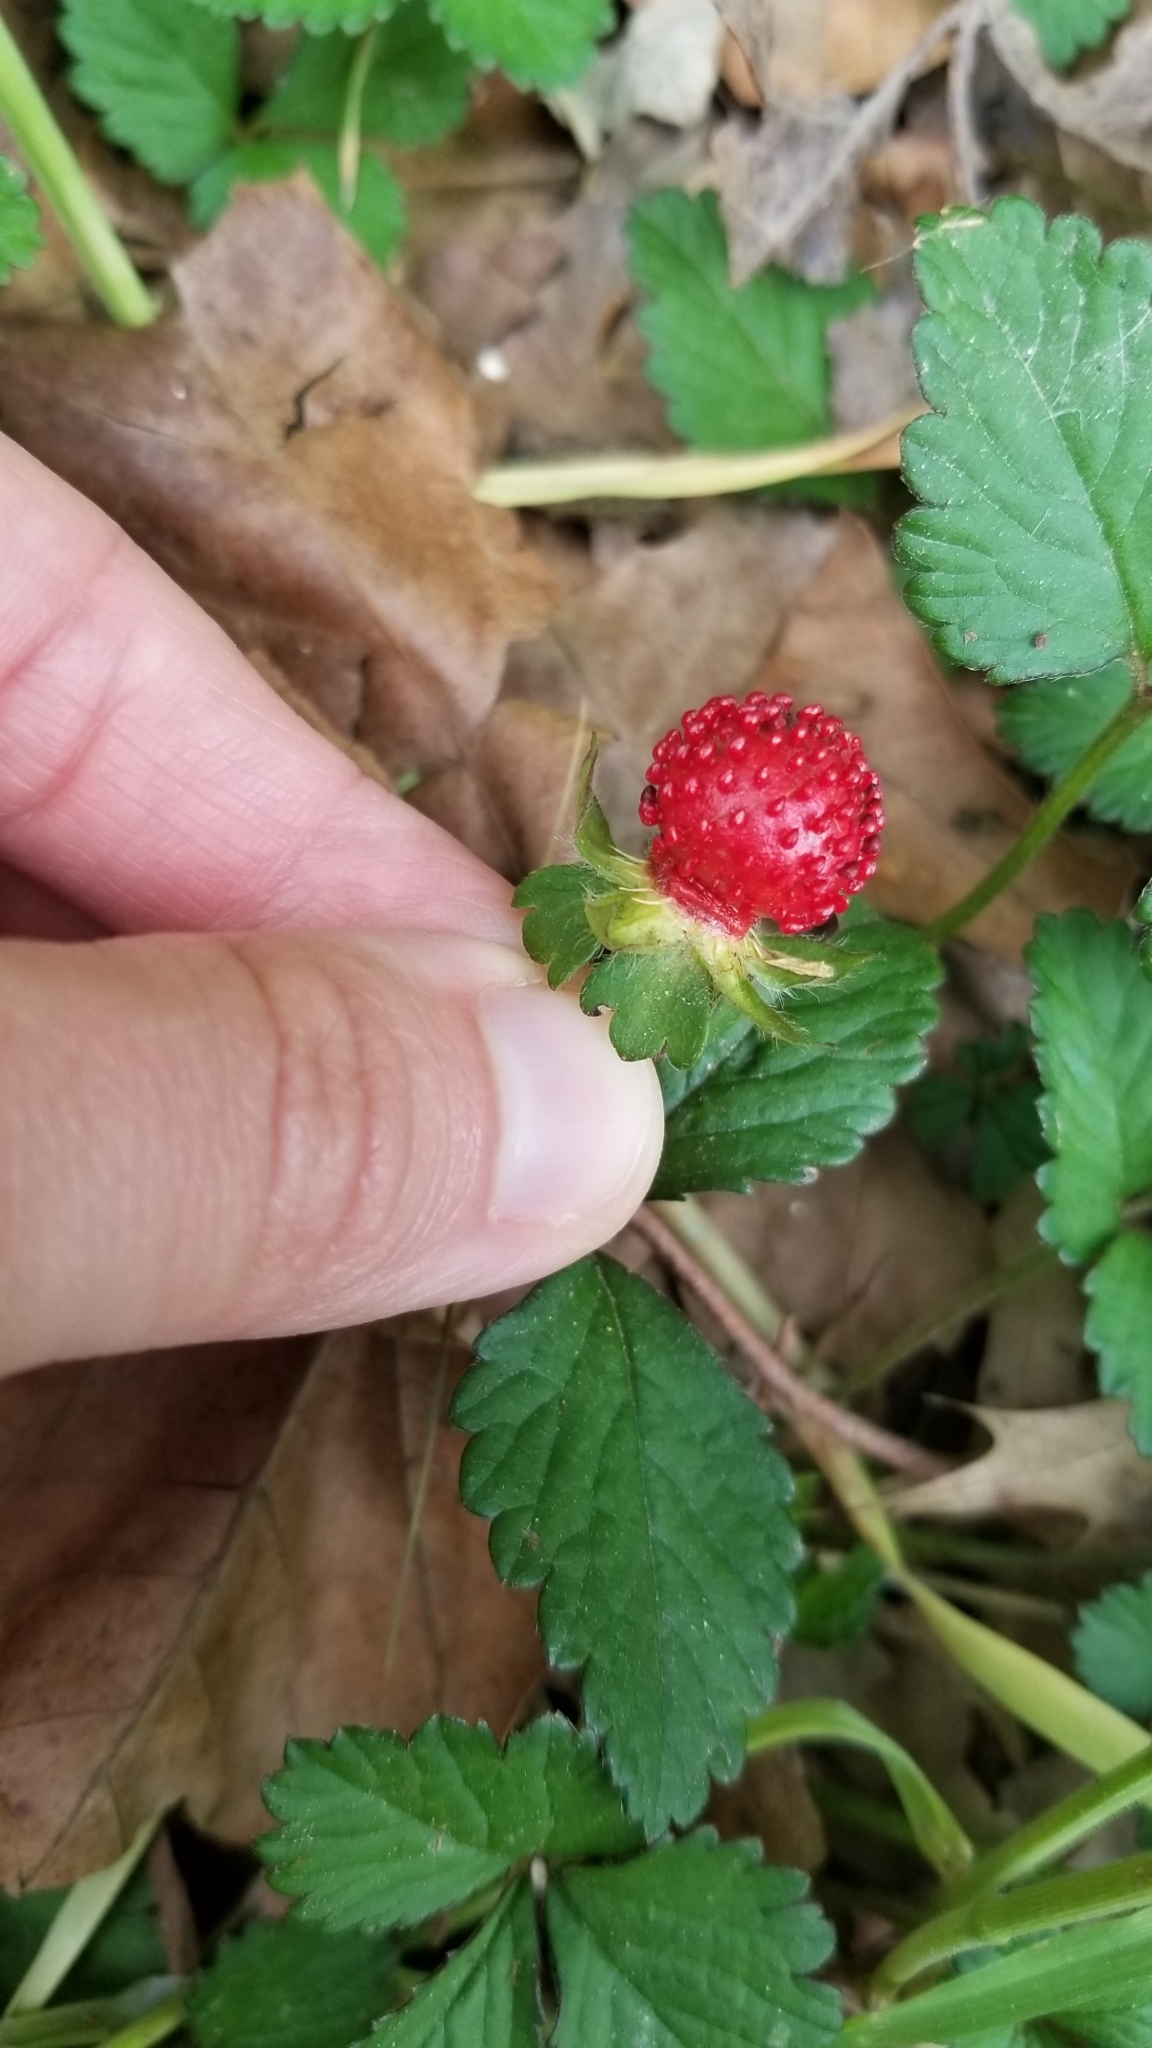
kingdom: Plantae
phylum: Tracheophyta
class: Magnoliopsida
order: Rosales
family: Rosaceae
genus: Potentilla
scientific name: Potentilla indica
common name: Yellow-flowered strawberry
